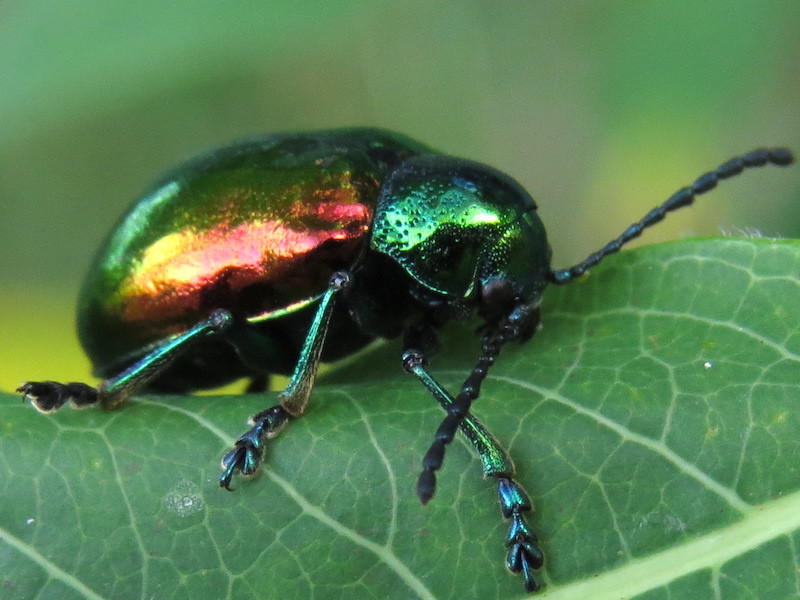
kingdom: Animalia
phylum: Arthropoda
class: Insecta
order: Coleoptera
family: Chrysomelidae
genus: Chrysochus
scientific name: Chrysochus auratus
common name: Dogbane leaf beetle
